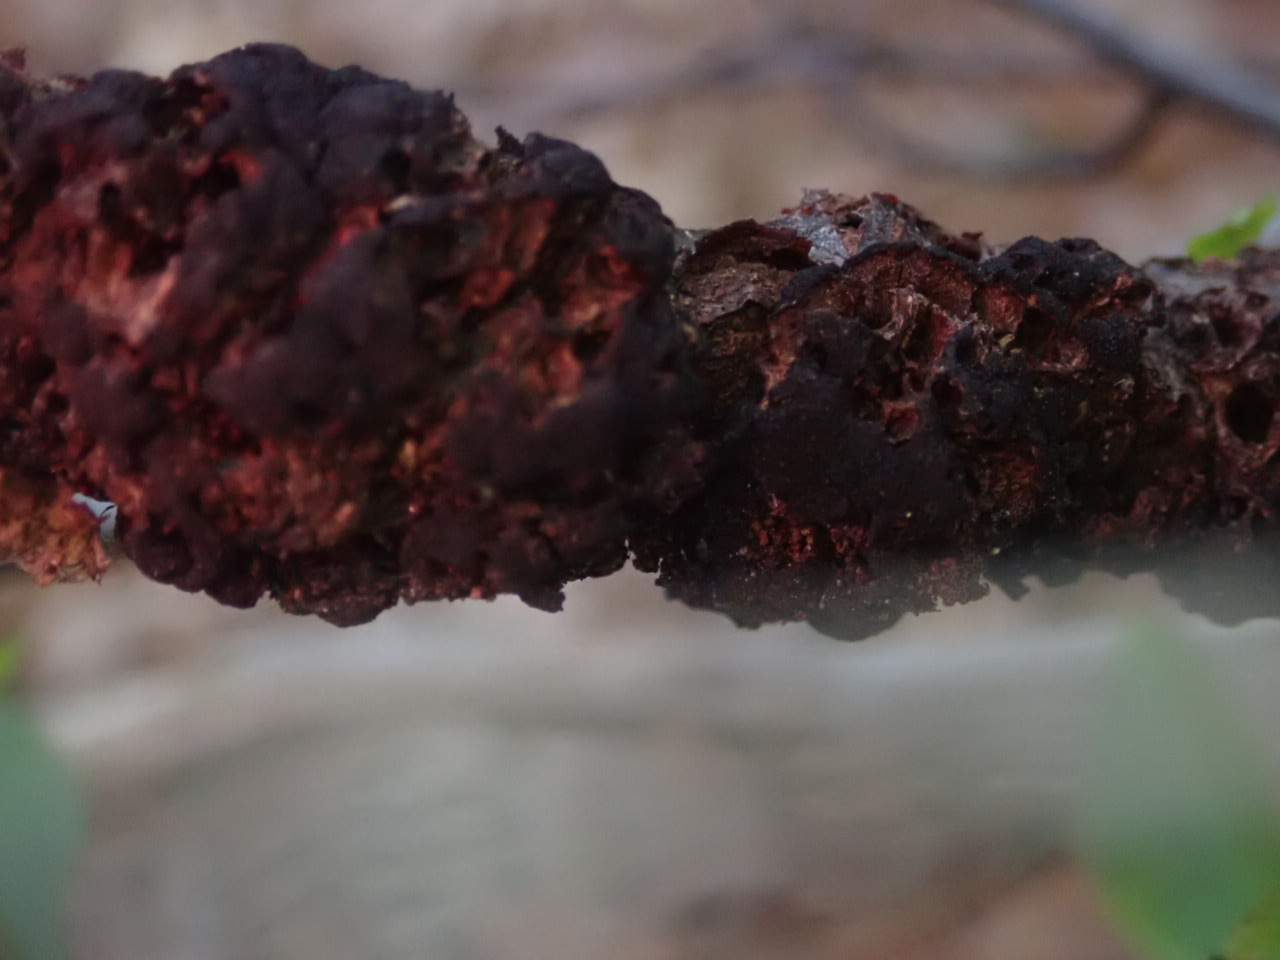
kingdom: Fungi
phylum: Ascomycota
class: Dothideomycetes
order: Venturiales
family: Venturiaceae
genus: Apiosporina
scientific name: Apiosporina morbosa
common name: Black knot
